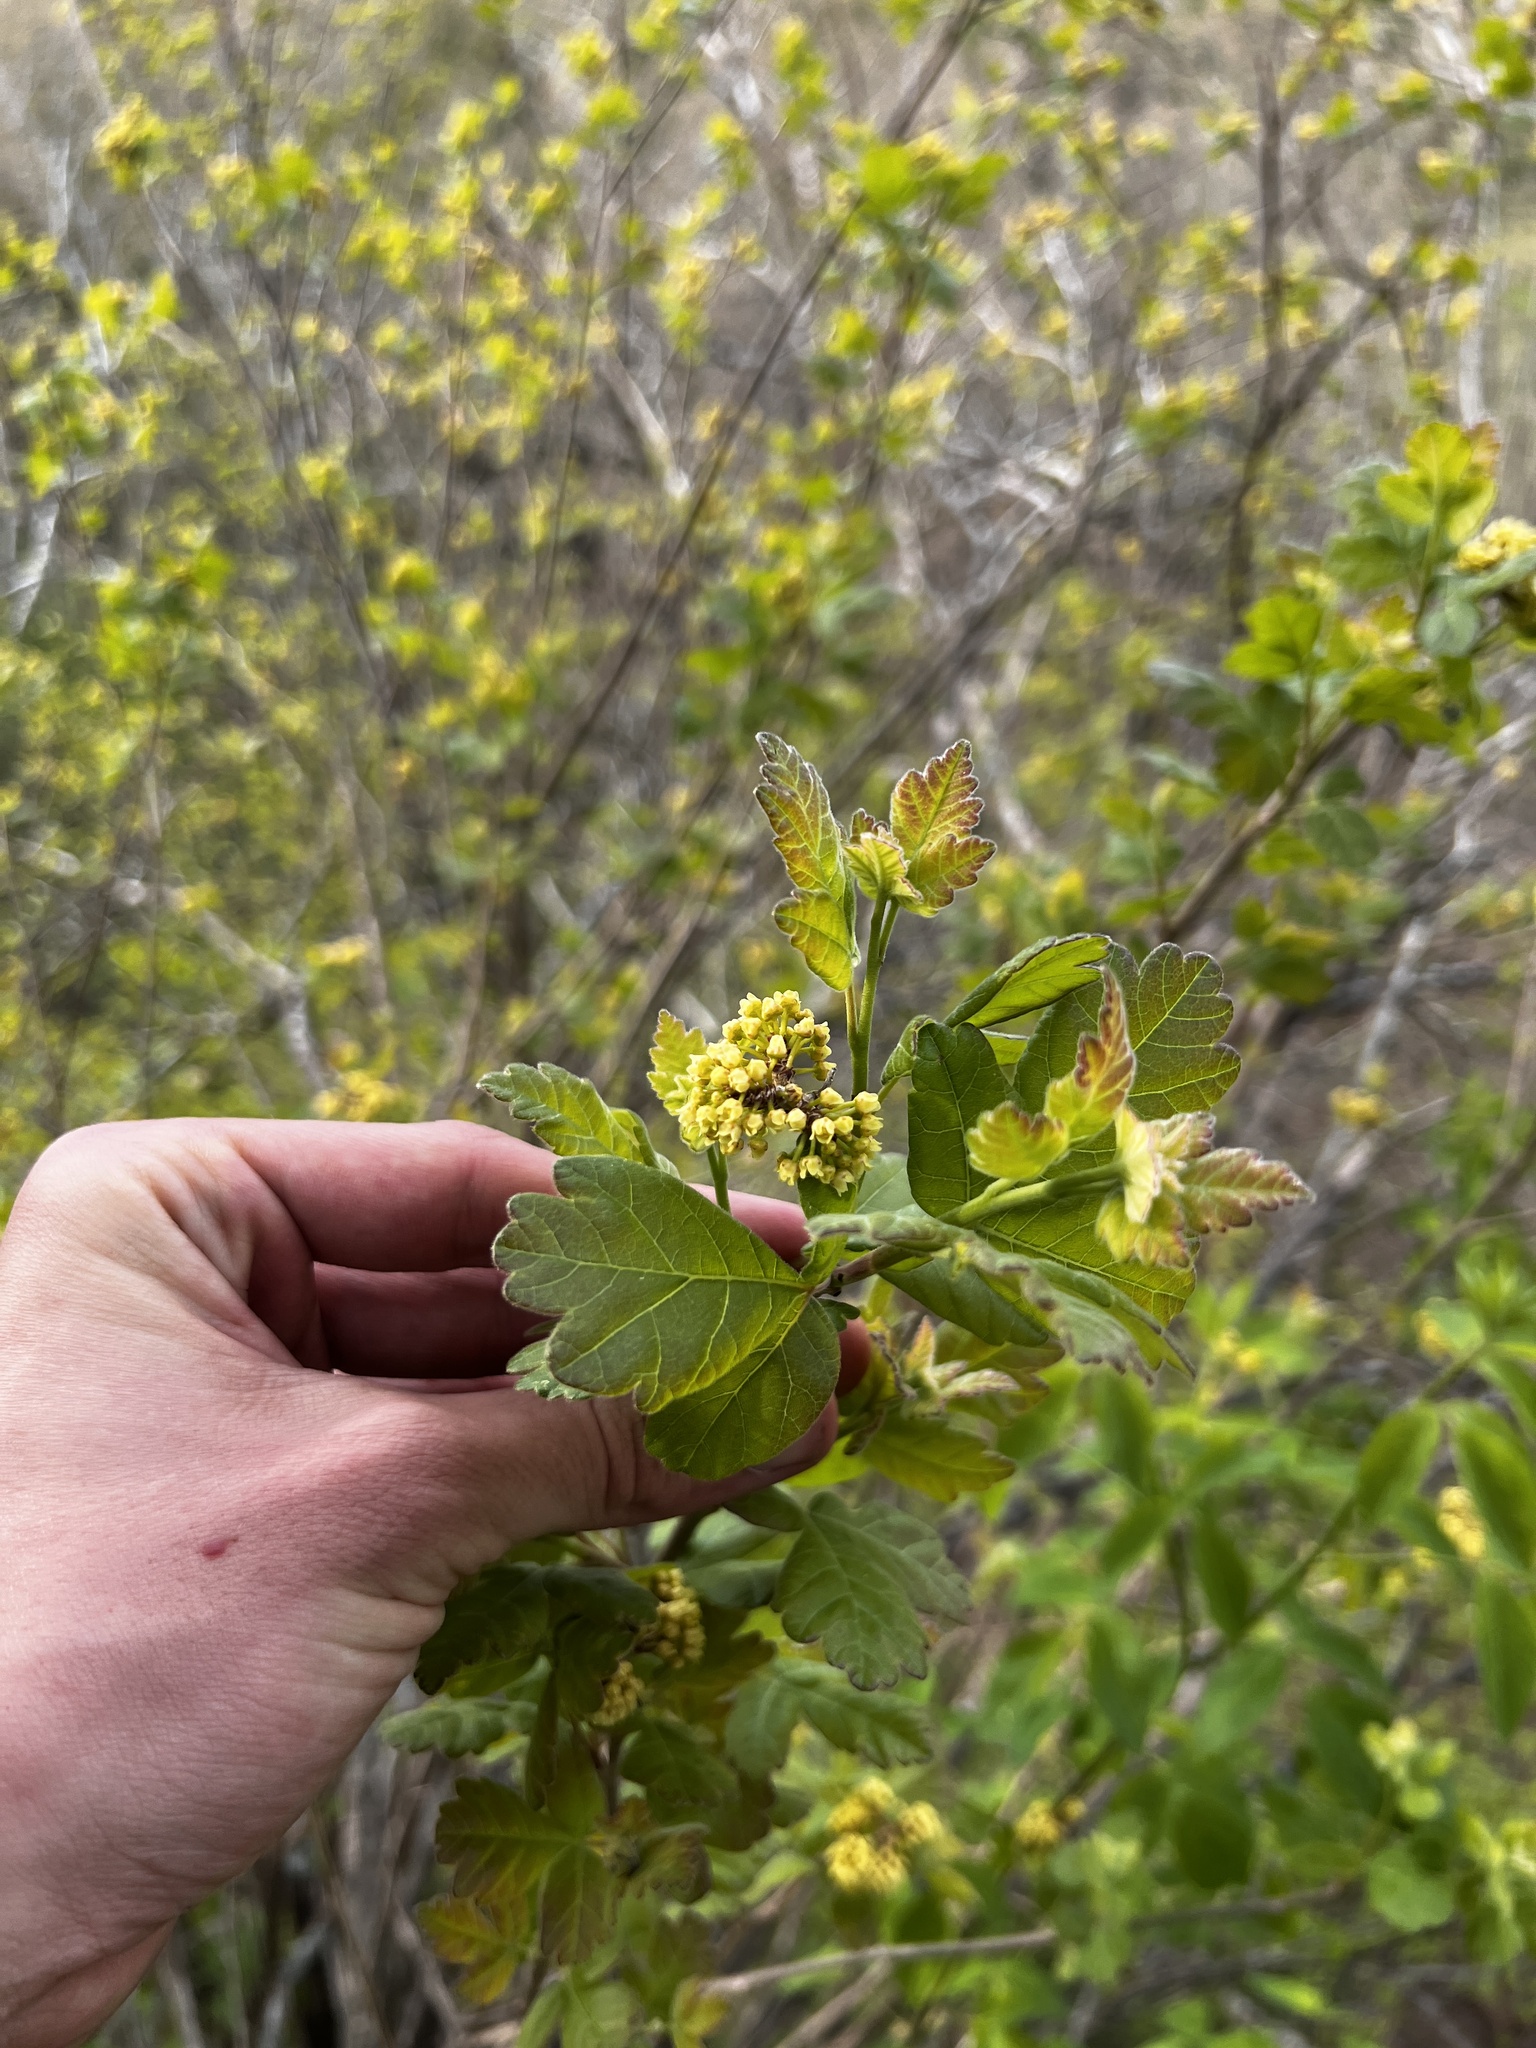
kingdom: Plantae
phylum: Tracheophyta
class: Magnoliopsida
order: Sapindales
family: Anacardiaceae
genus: Rhus
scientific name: Rhus aromatica
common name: Aromatic sumac
